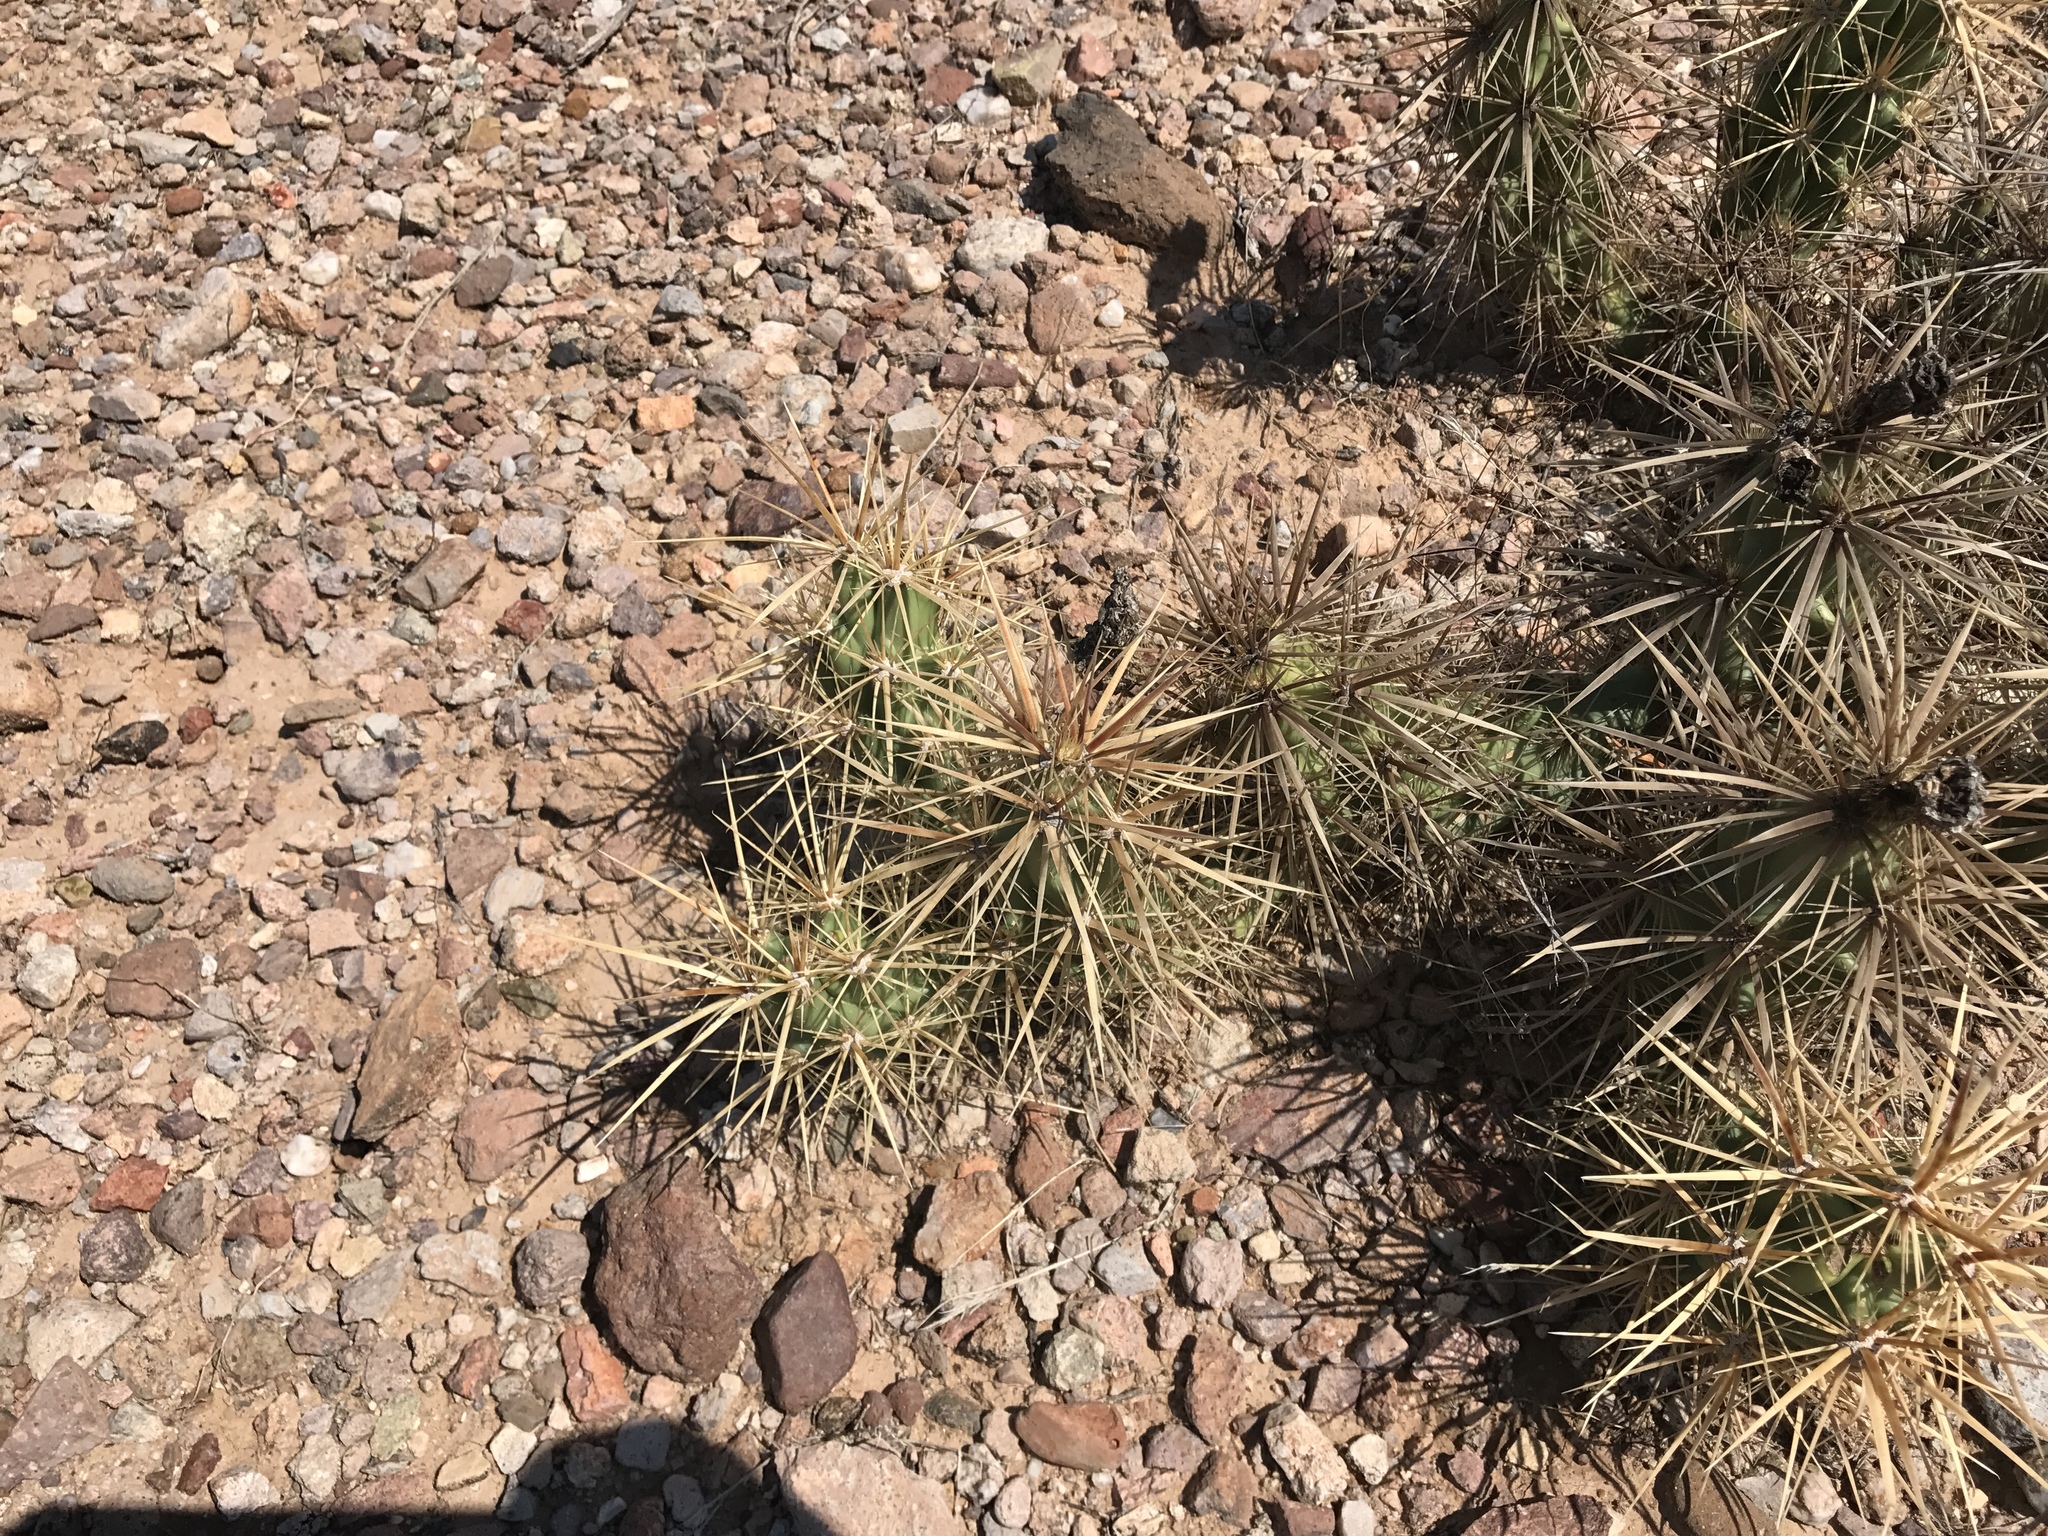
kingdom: Plantae
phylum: Tracheophyta
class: Magnoliopsida
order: Caryophyllales
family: Cactaceae
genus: Grusonia
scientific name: Grusonia emoryi
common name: Stanly's club cholla
